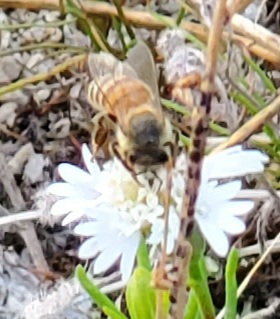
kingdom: Animalia
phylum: Arthropoda
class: Insecta
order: Hymenoptera
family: Apidae
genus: Apis
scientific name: Apis mellifera
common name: Honey bee
